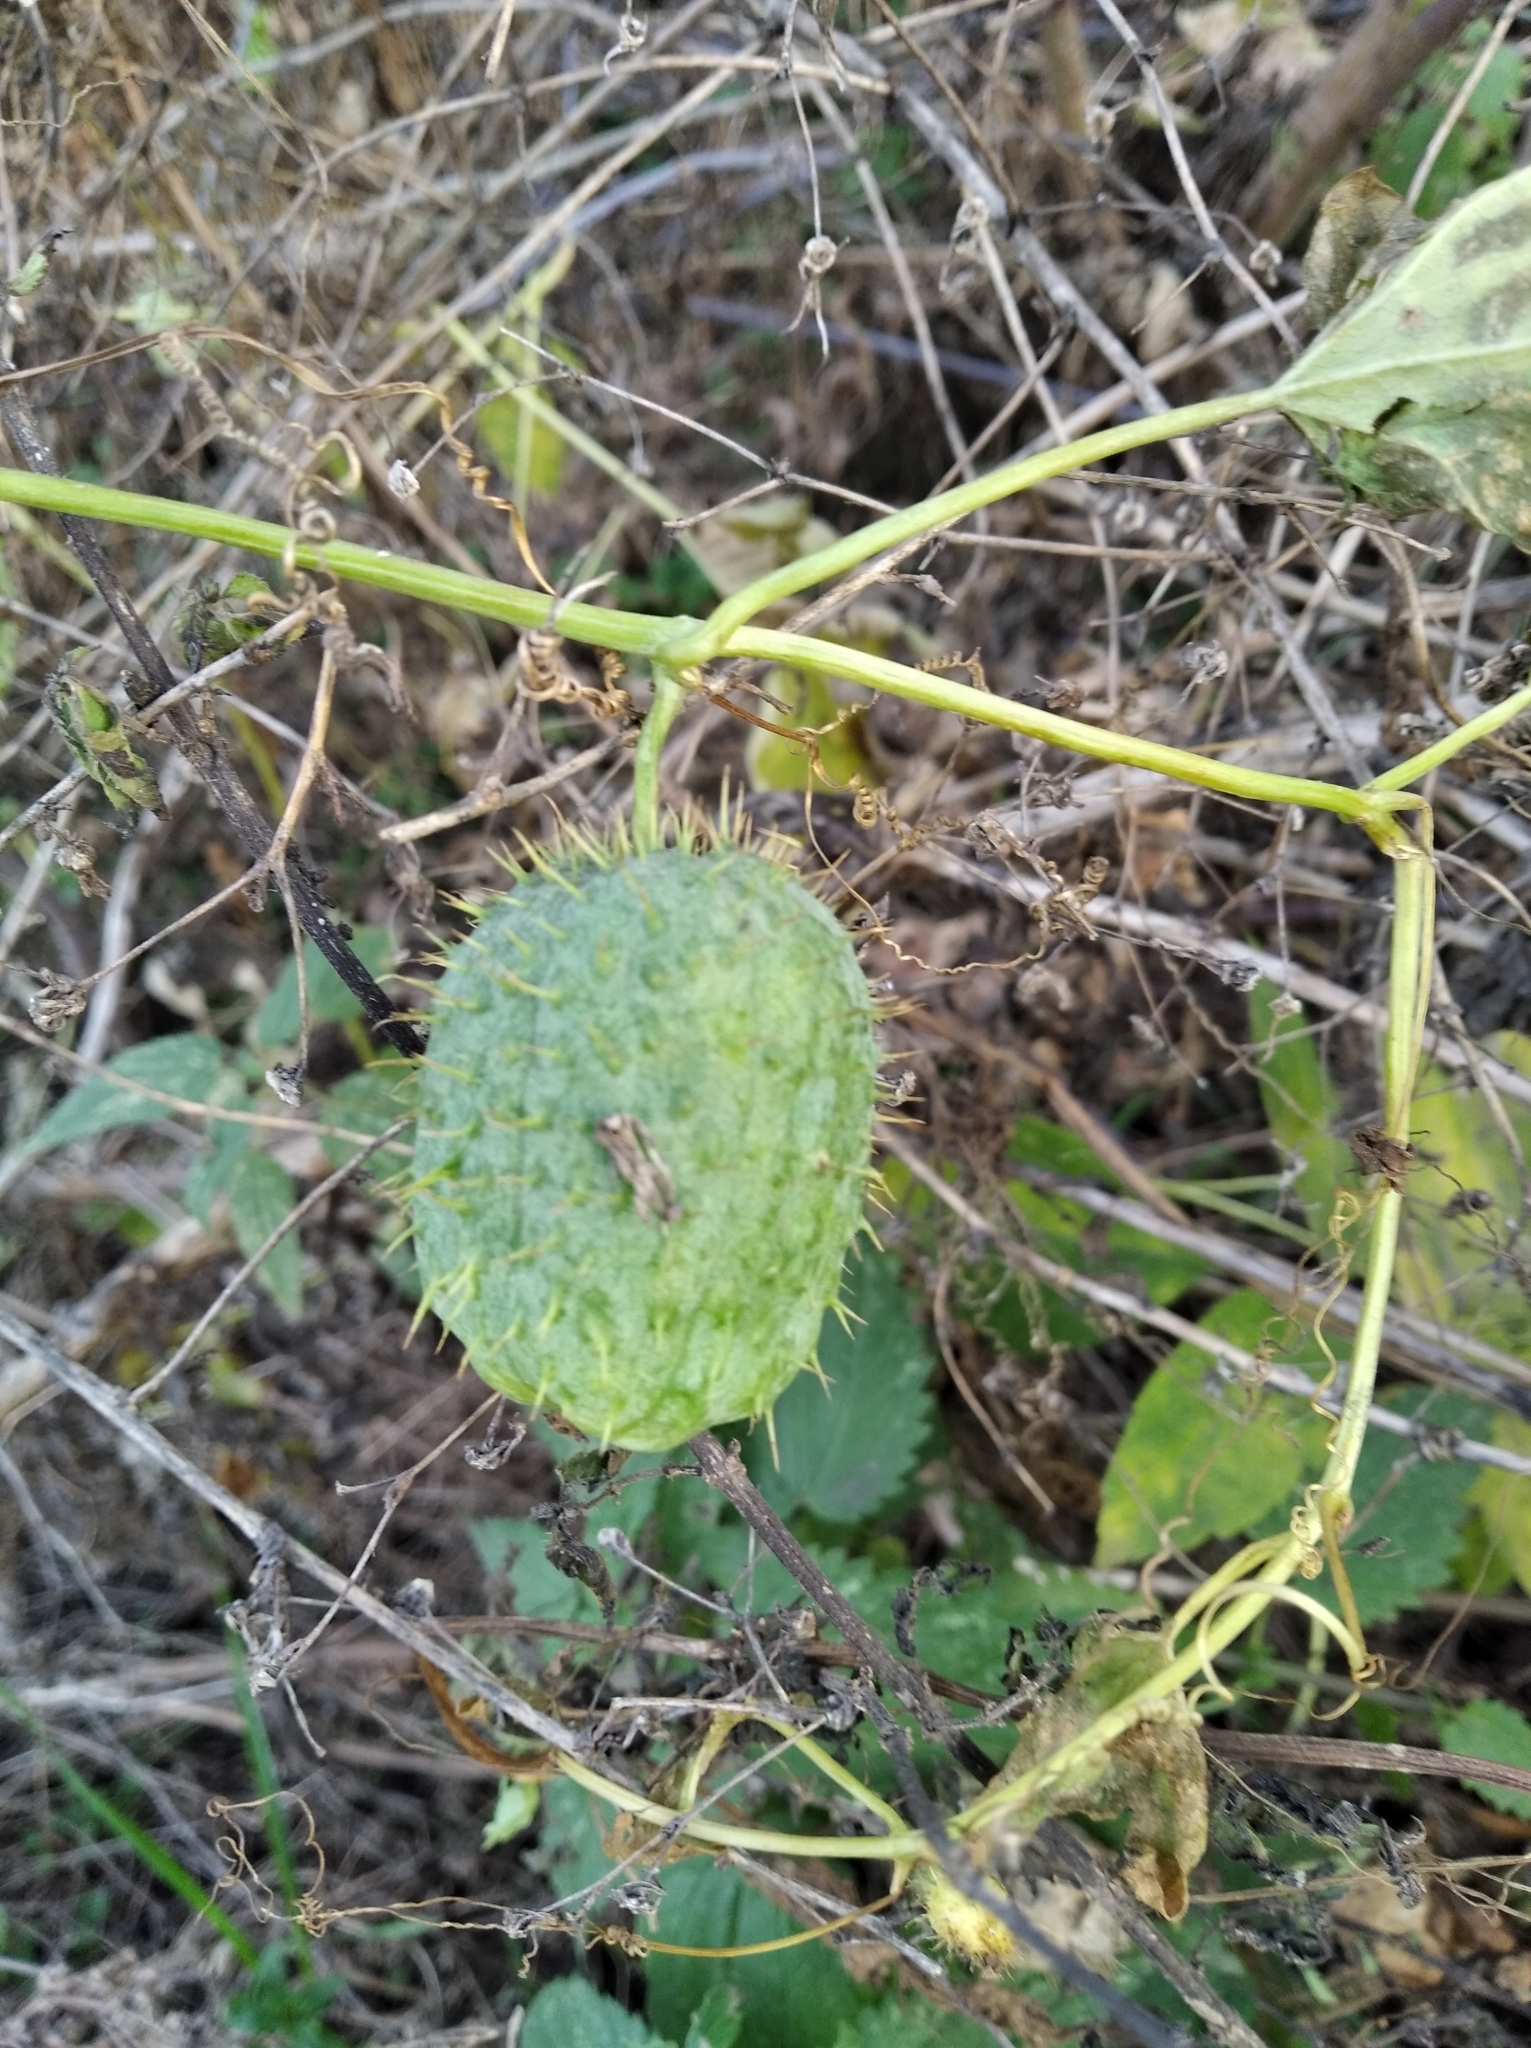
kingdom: Plantae
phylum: Tracheophyta
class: Magnoliopsida
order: Cucurbitales
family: Cucurbitaceae
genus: Echinocystis
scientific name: Echinocystis lobata
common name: Wild cucumber
